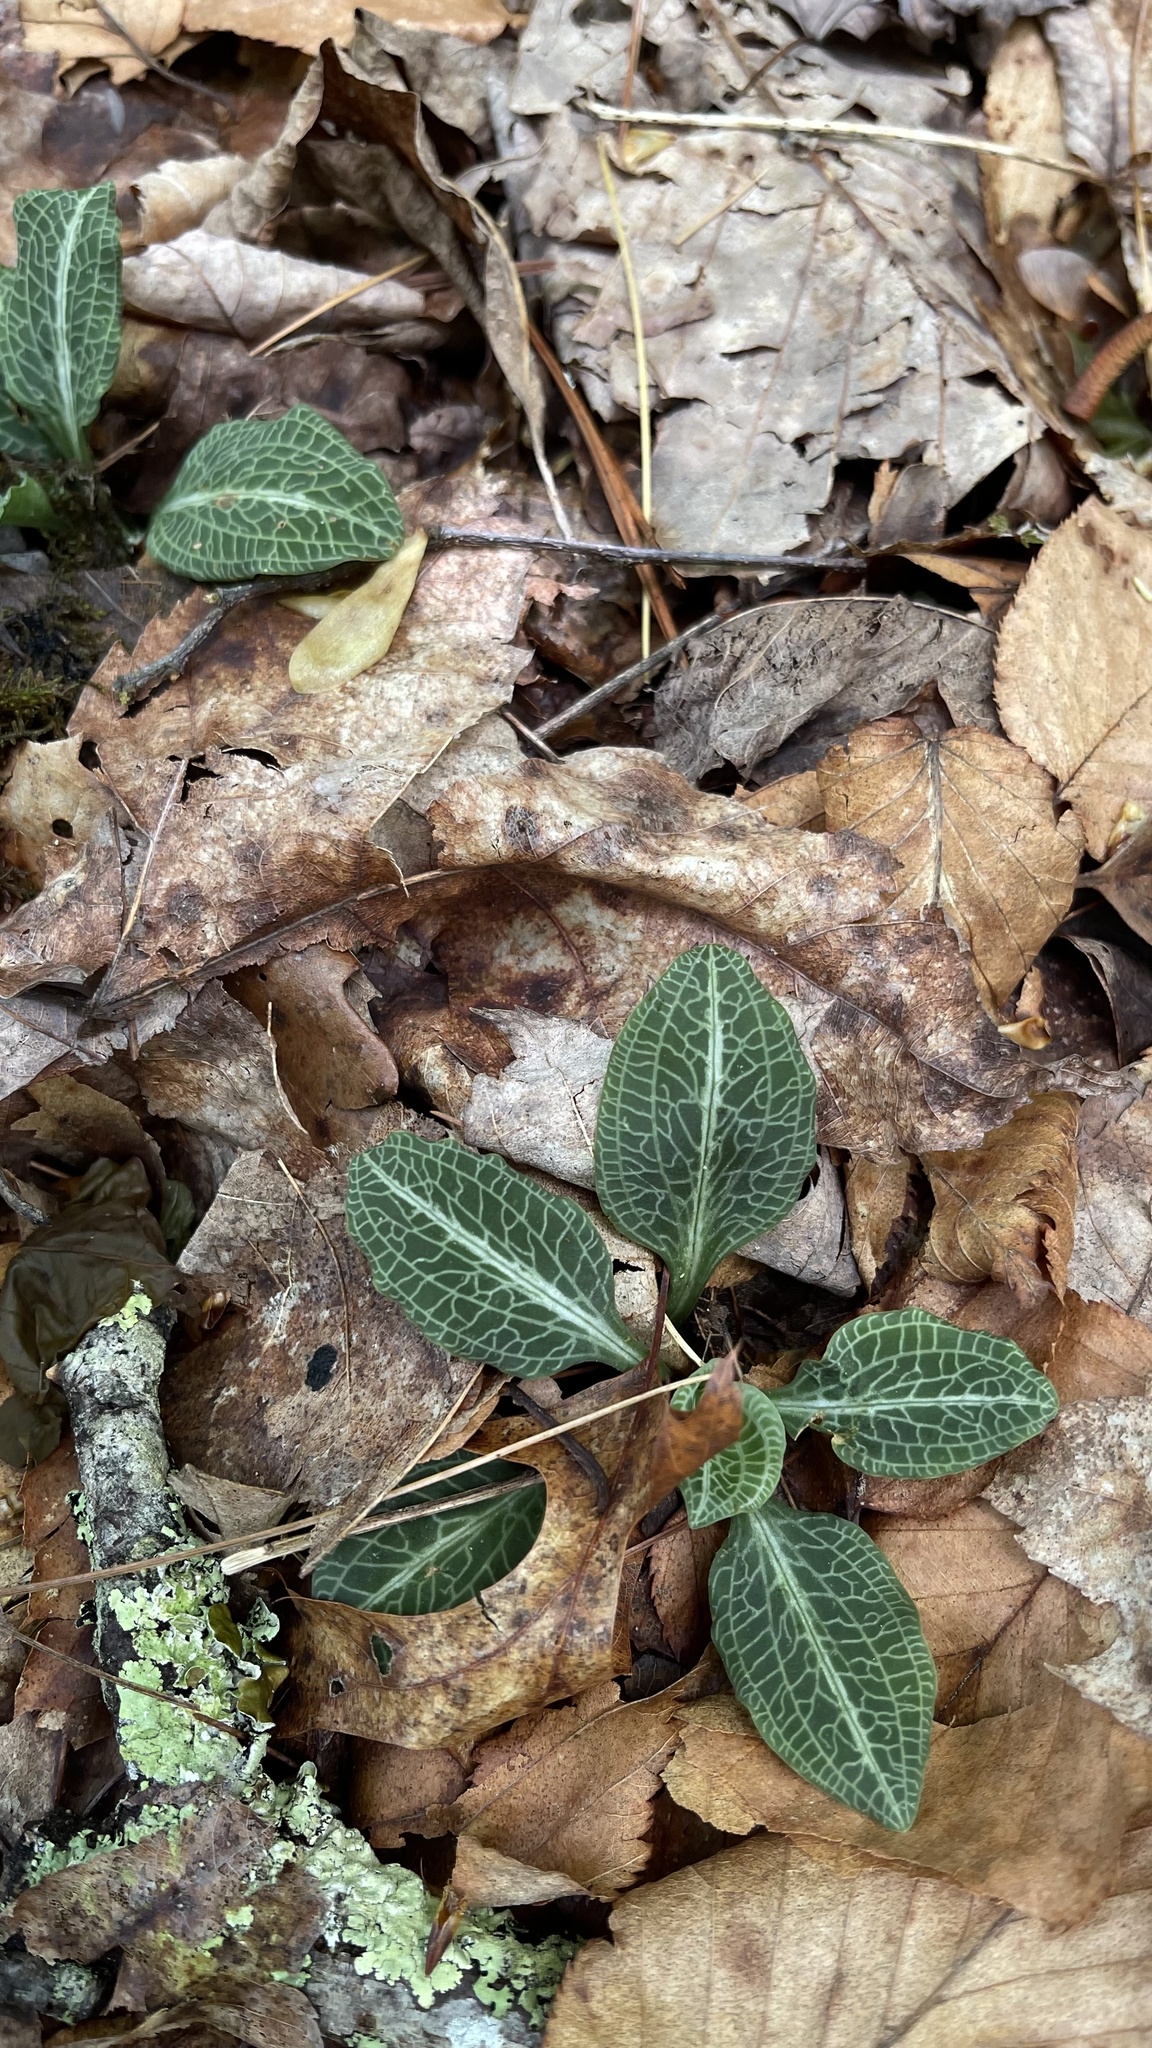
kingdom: Plantae
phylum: Tracheophyta
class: Liliopsida
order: Asparagales
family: Orchidaceae
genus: Goodyera
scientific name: Goodyera pubescens
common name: Downy rattlesnake-plantain
